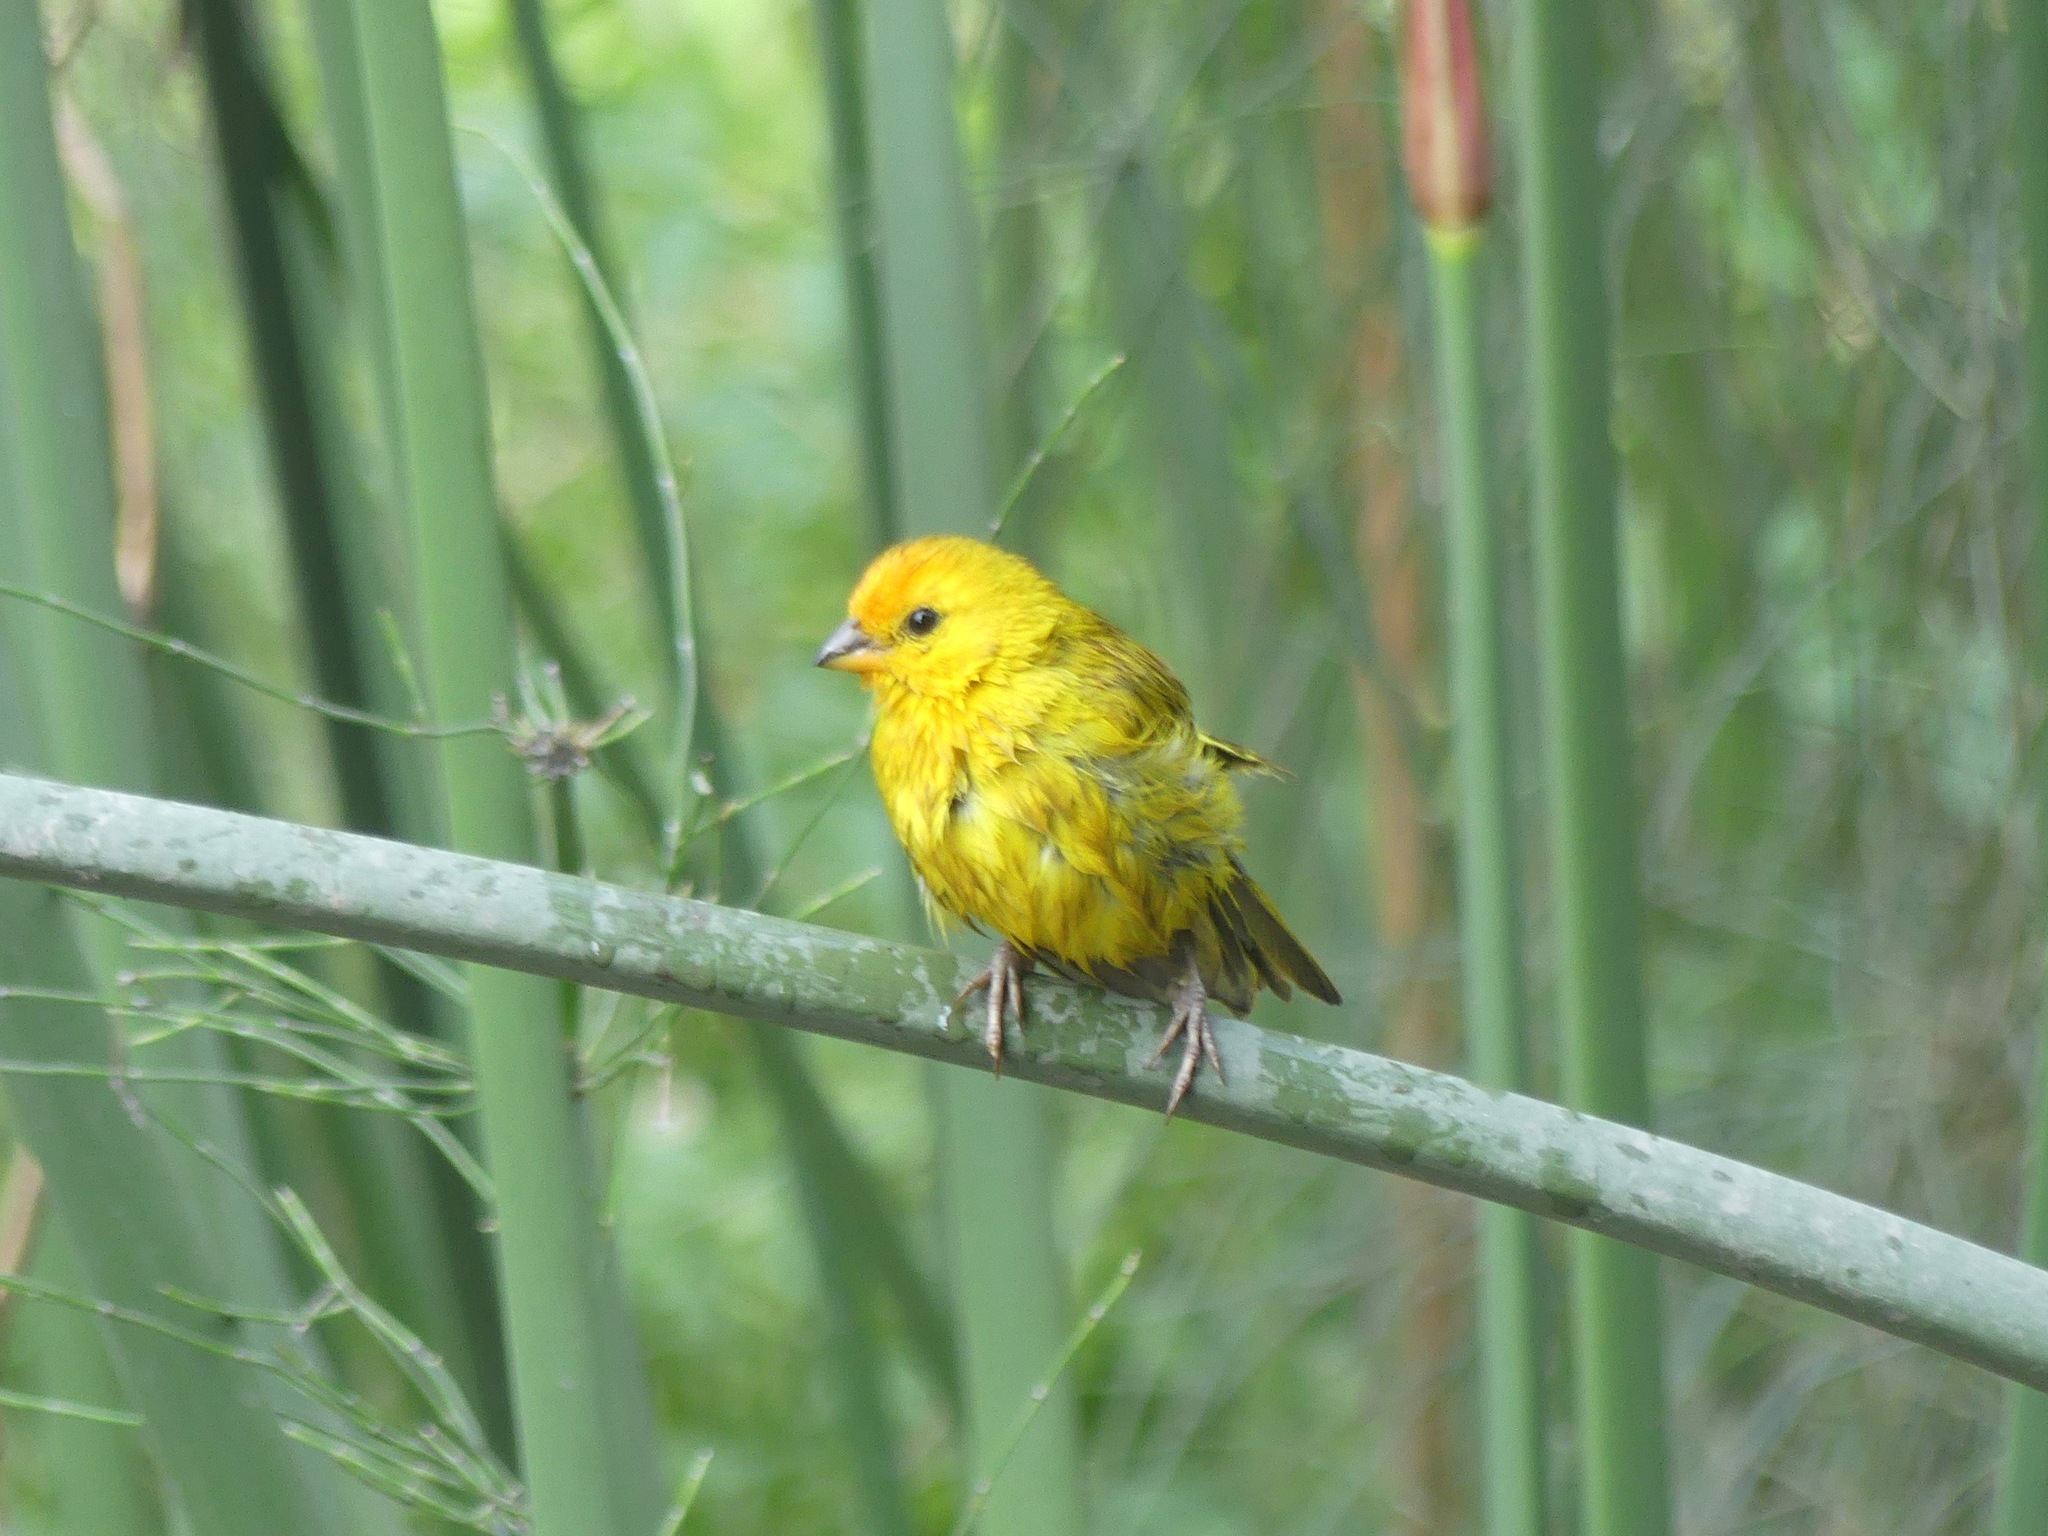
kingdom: Animalia
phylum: Chordata
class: Aves
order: Passeriformes
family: Thraupidae
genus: Sicalis
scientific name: Sicalis flaveola
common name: Saffron finch
